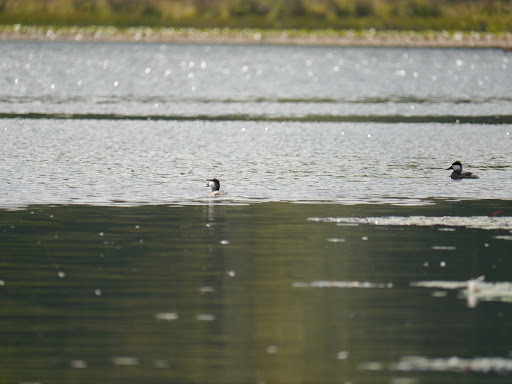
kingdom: Animalia
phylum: Chordata
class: Aves
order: Anseriformes
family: Anatidae
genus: Oxyura
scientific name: Oxyura jamaicensis
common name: Ruddy duck
